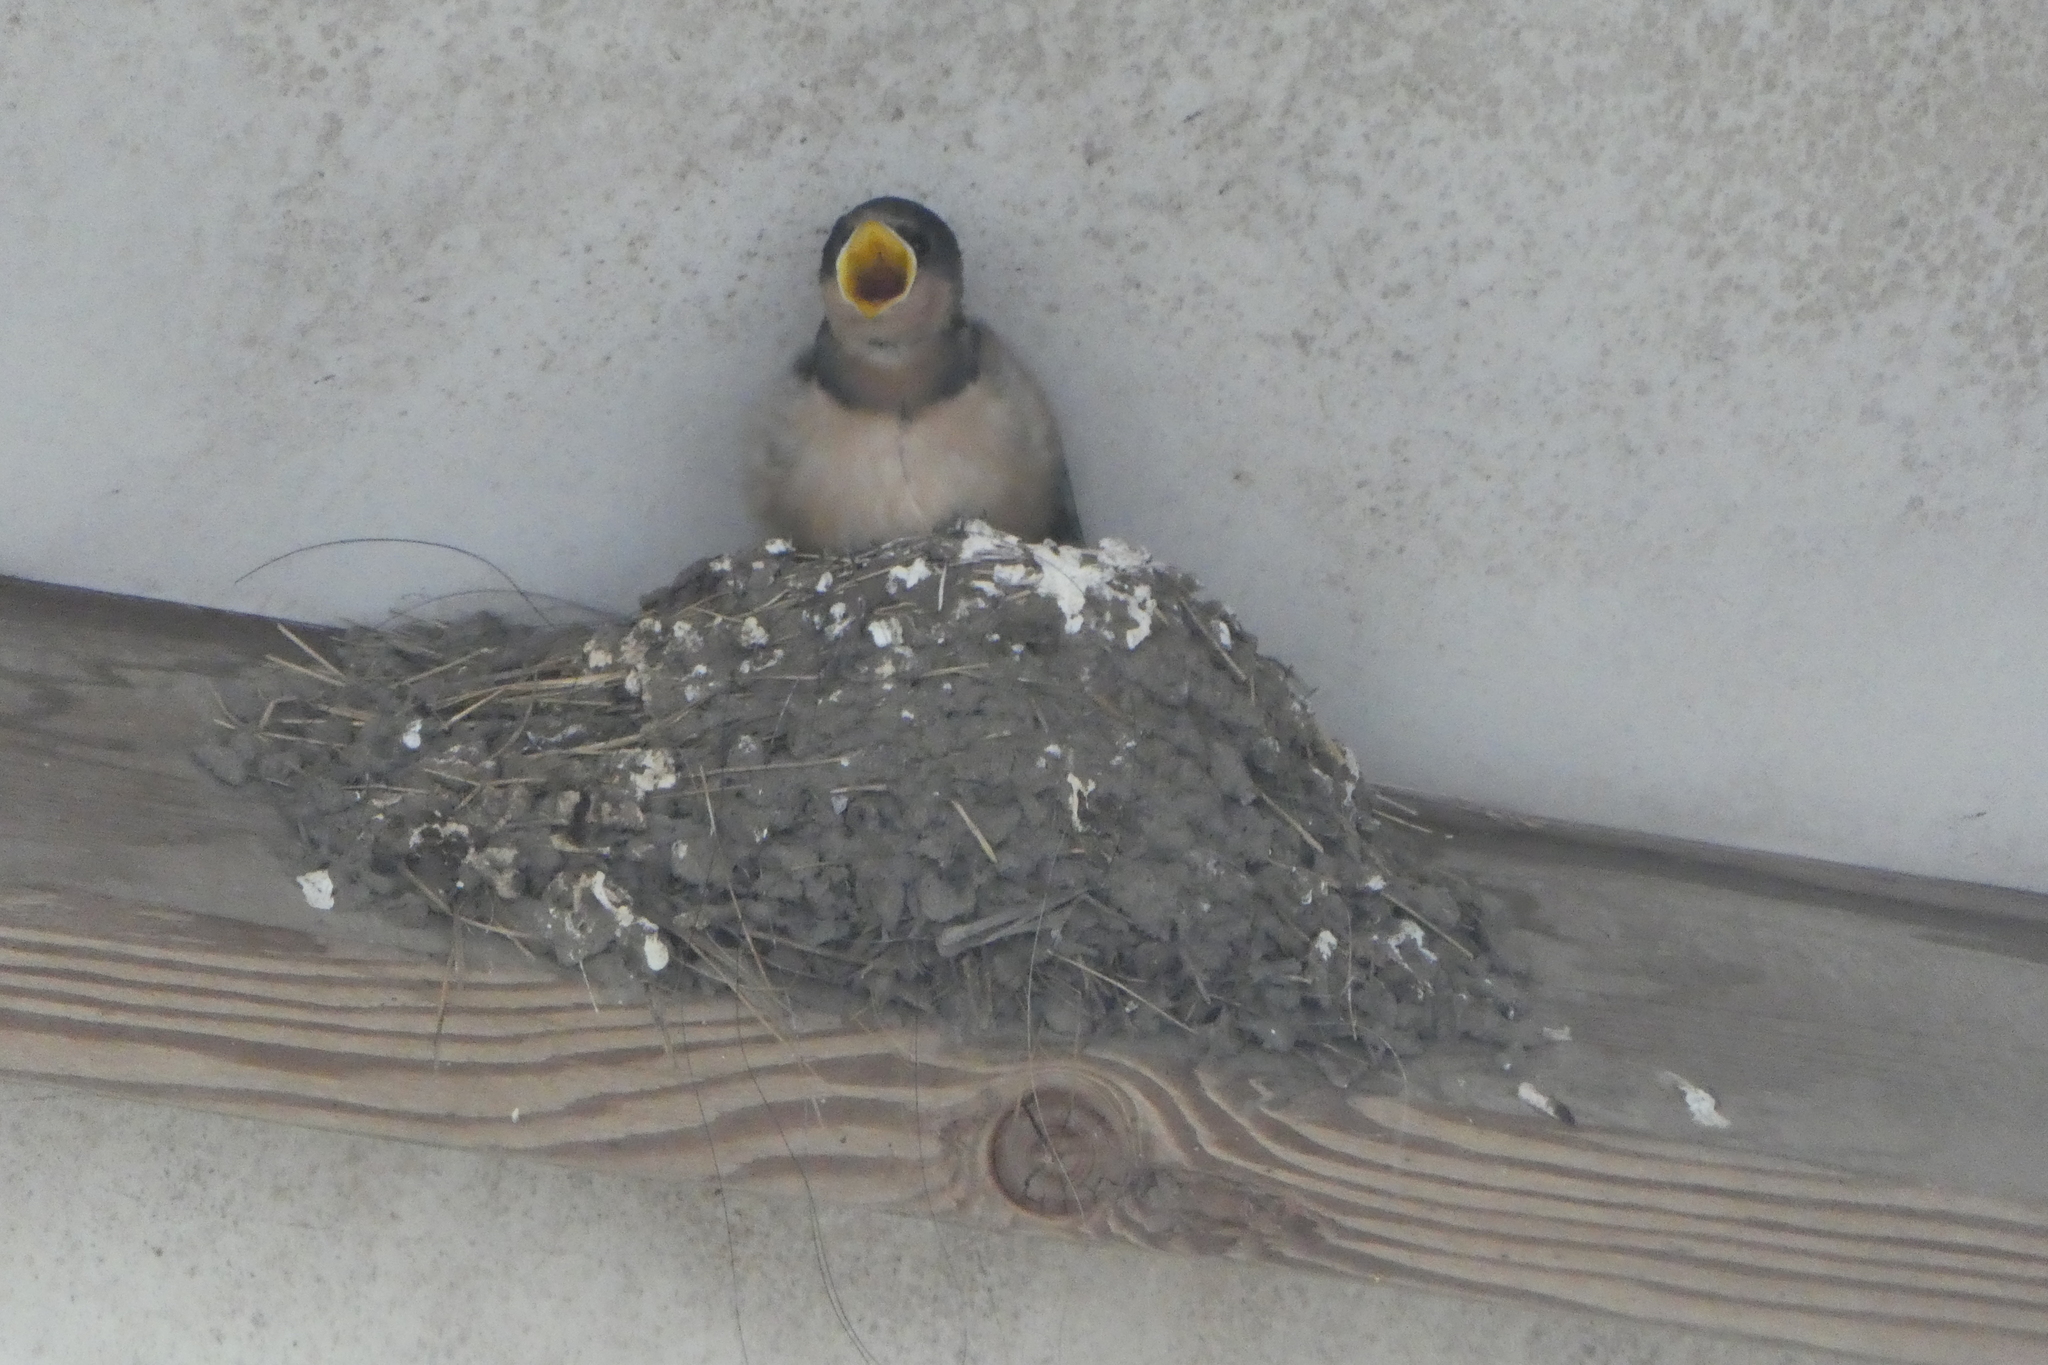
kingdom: Animalia
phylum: Chordata
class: Aves
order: Passeriformes
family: Hirundinidae
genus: Hirundo
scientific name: Hirundo rustica
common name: Barn swallow
